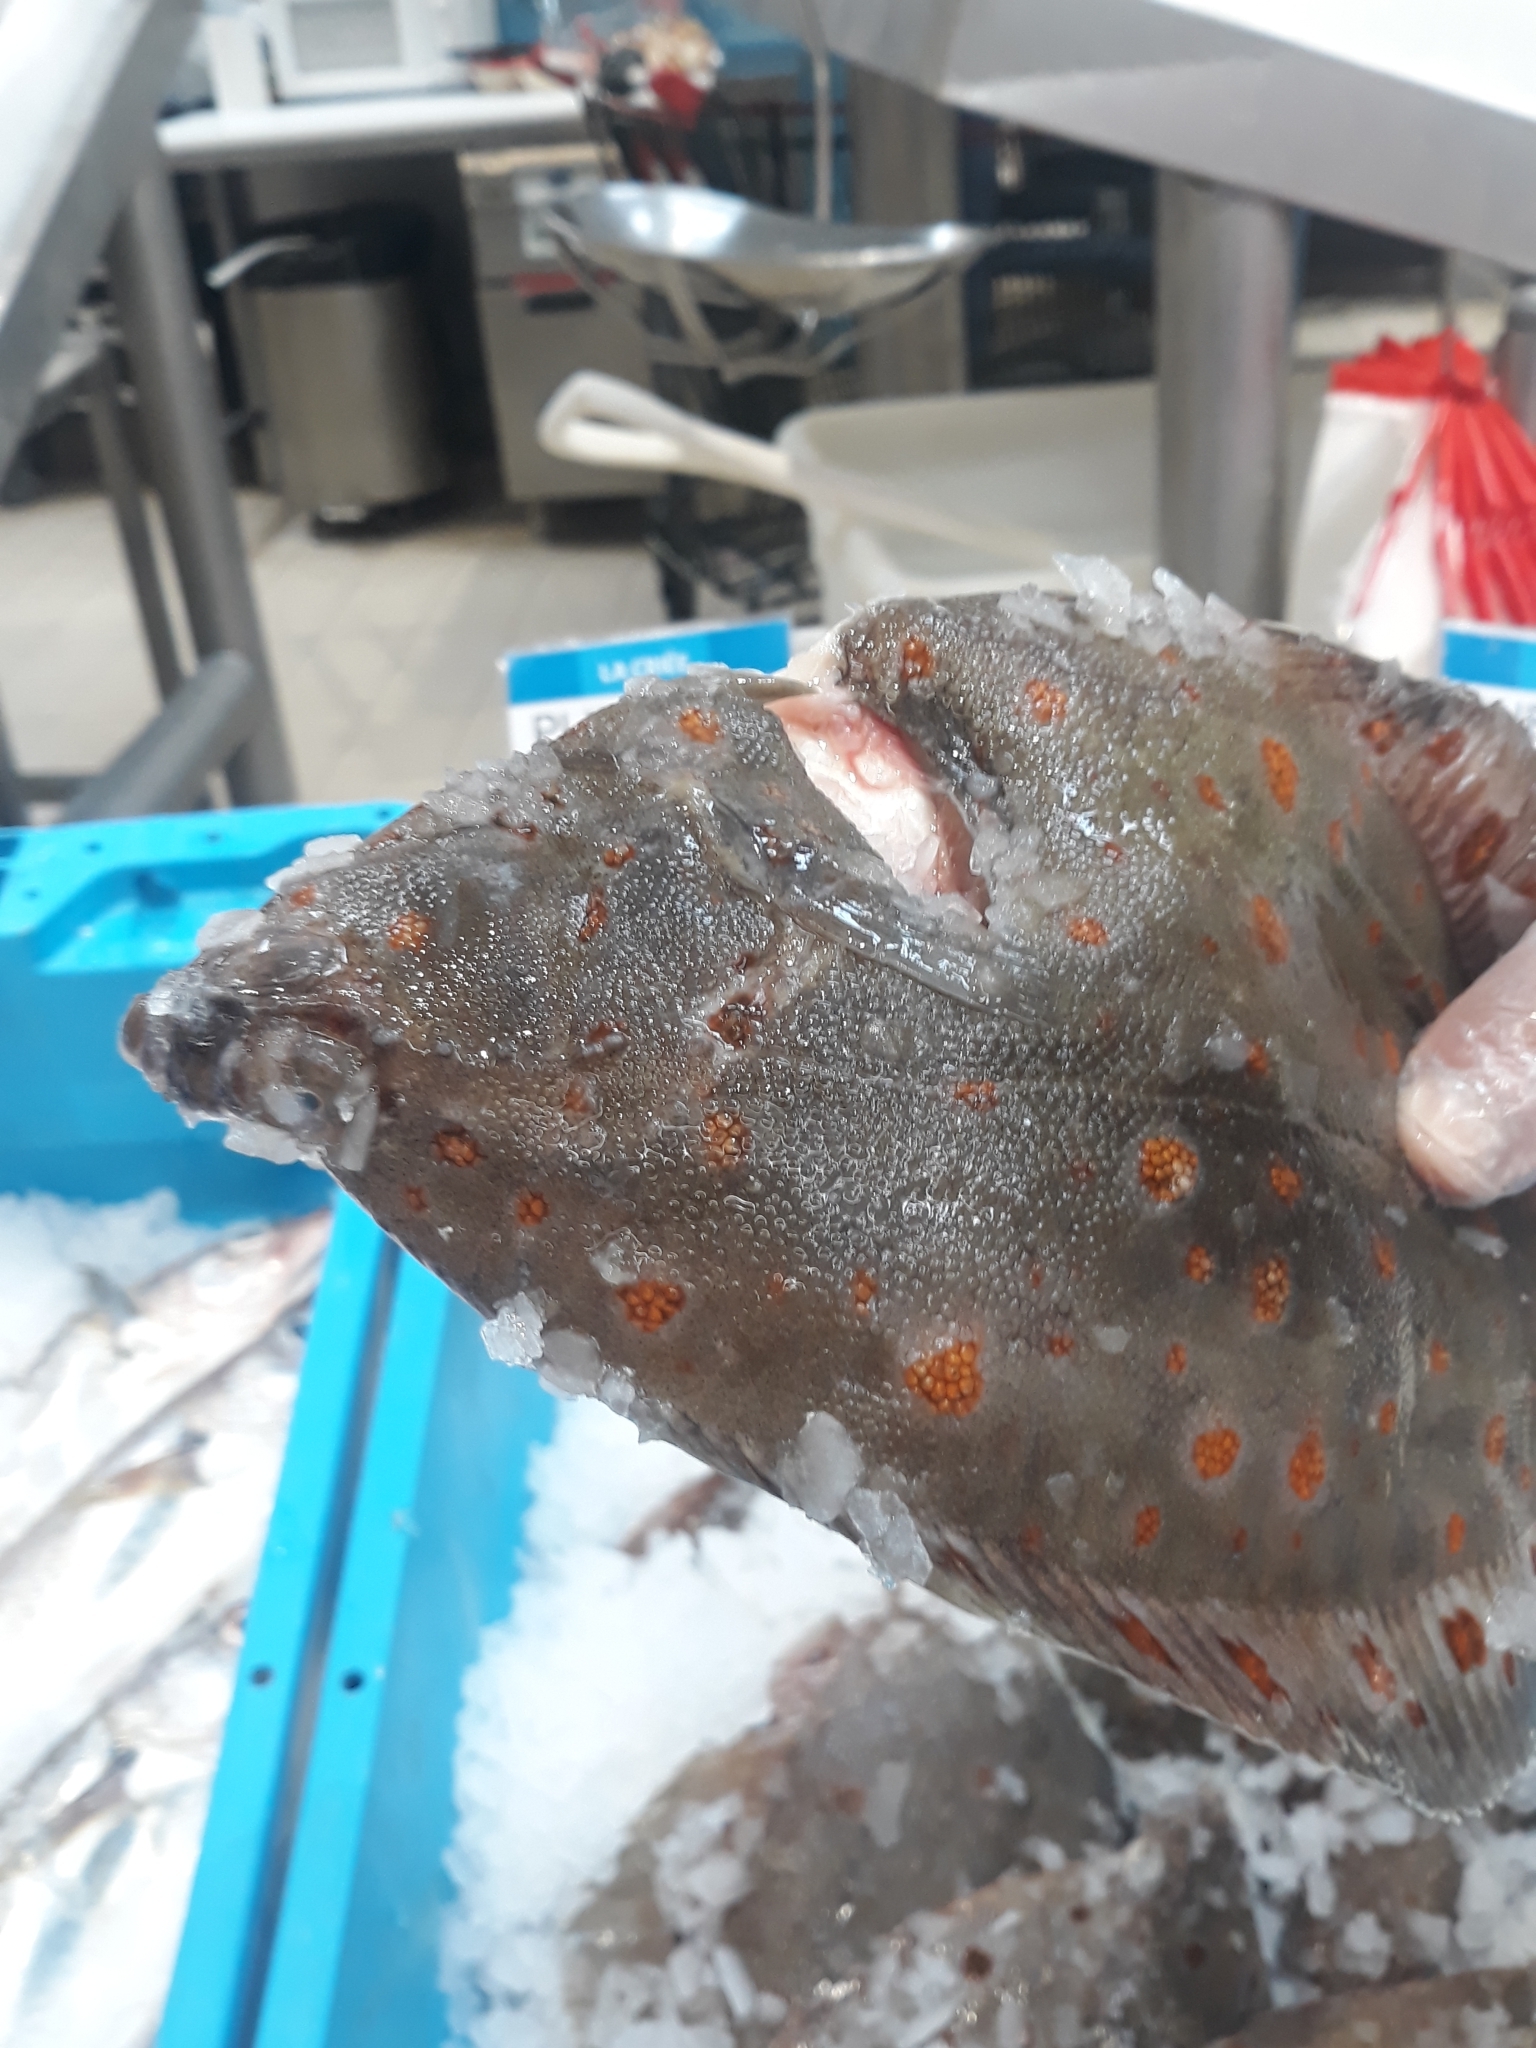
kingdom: Animalia
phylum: Chordata
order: Pleuronectiformes
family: Pleuronectidae
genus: Pleuronectes
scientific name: Pleuronectes platessa
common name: Plaice
